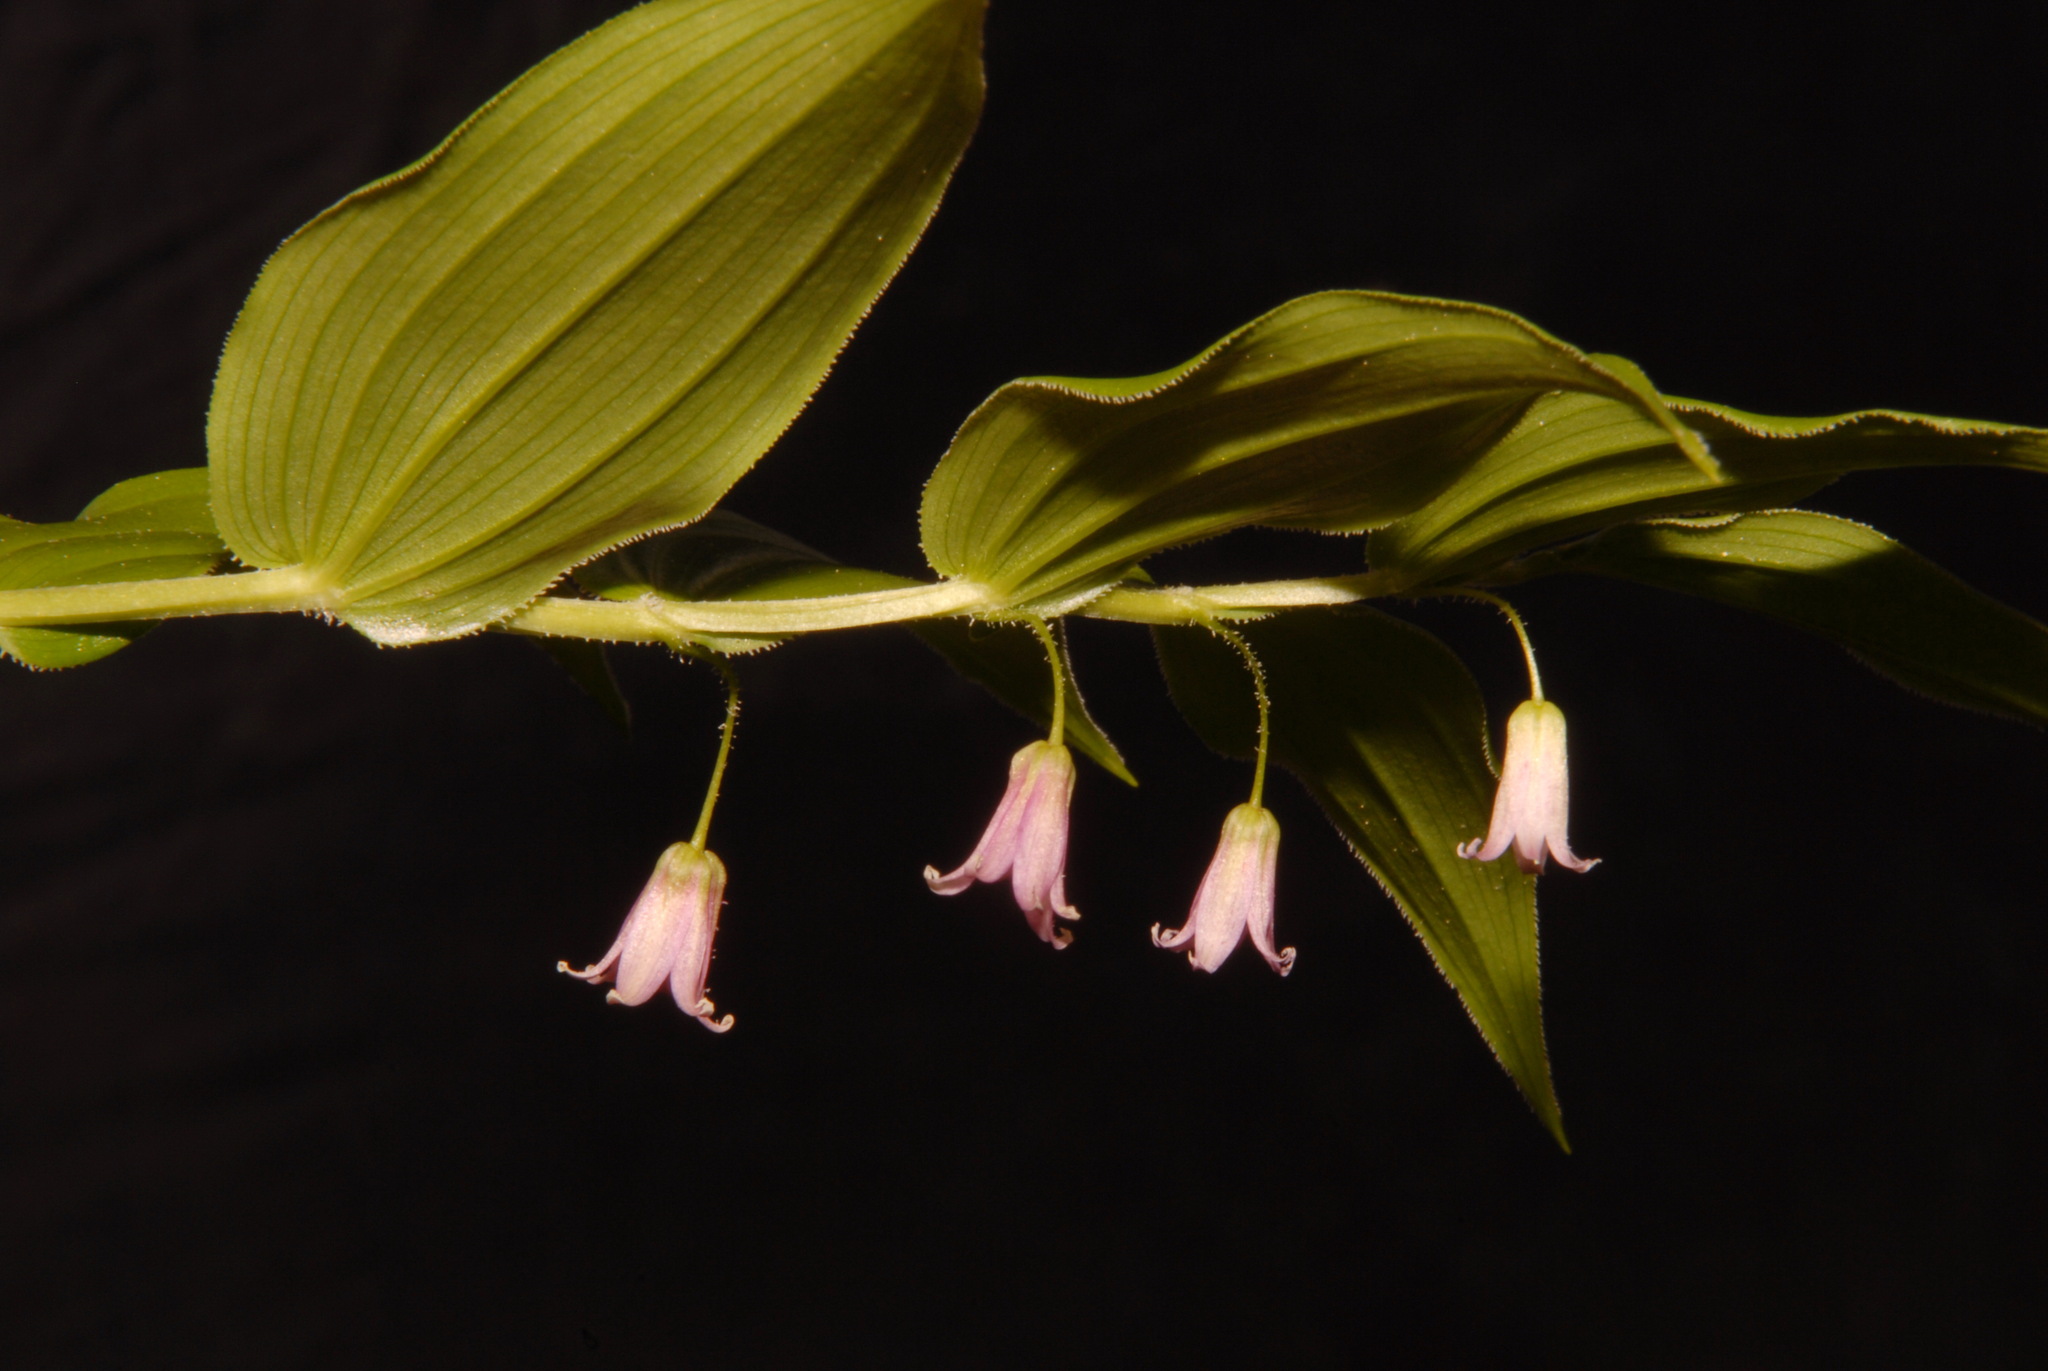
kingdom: Plantae
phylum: Tracheophyta
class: Liliopsida
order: Liliales
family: Liliaceae
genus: Streptopus
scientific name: Streptopus lanceolatus
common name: Rose mandarin
